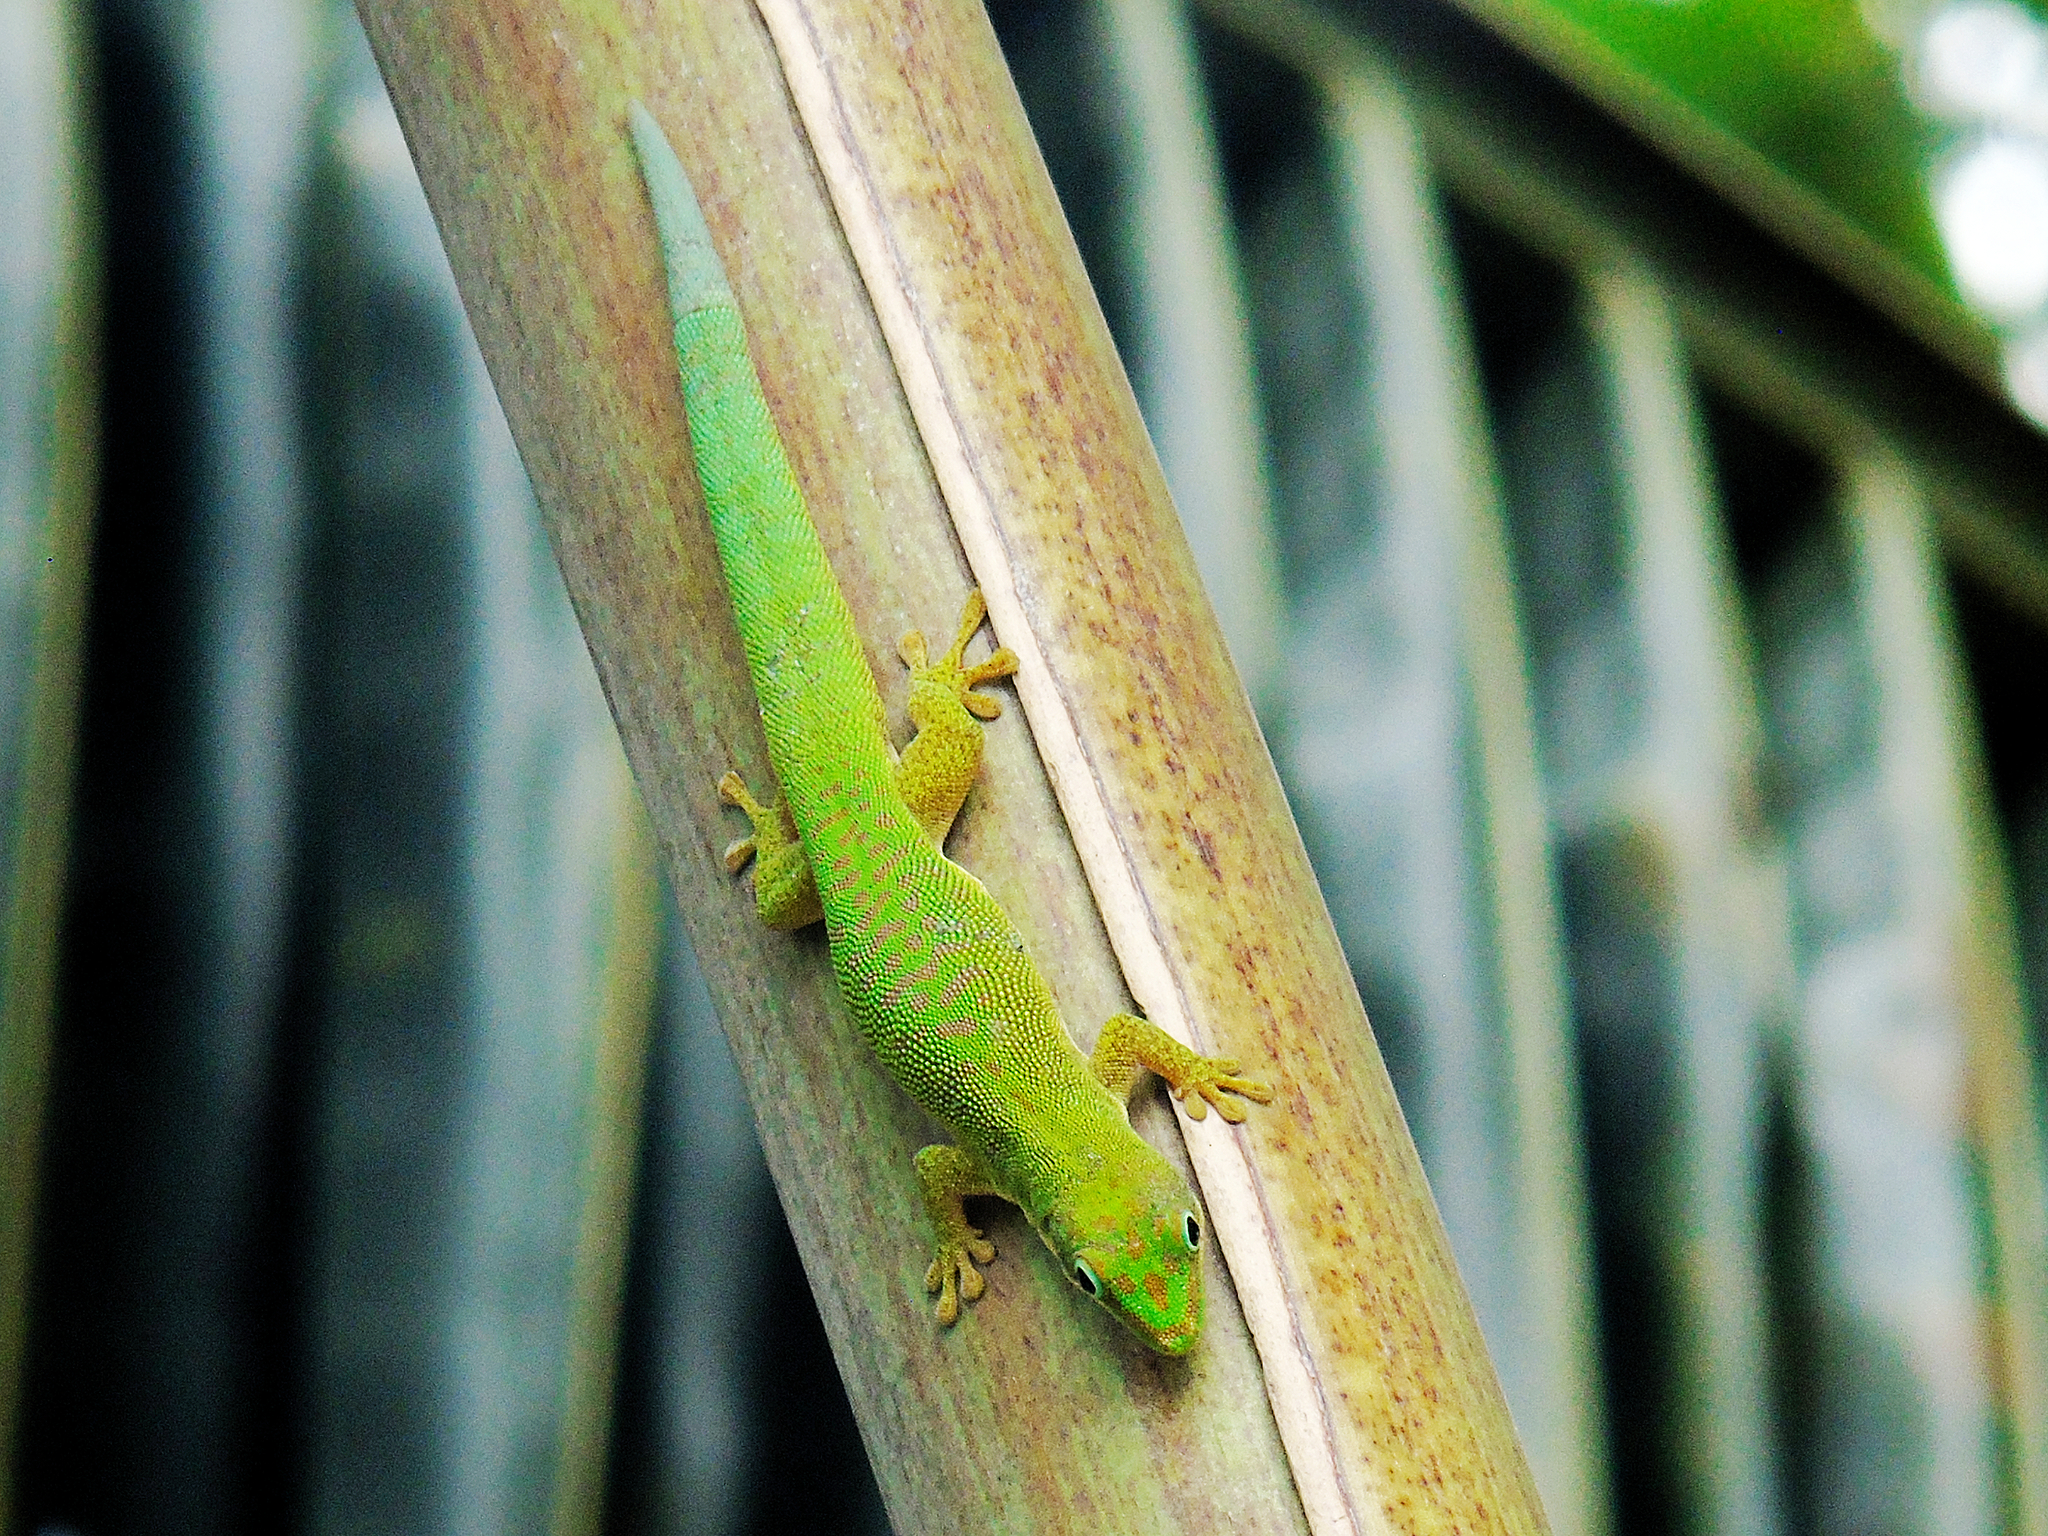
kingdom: Animalia
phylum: Chordata
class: Squamata
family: Gekkonidae
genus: Phelsuma
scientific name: Phelsuma dubia
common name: Zanzibar day gecko
